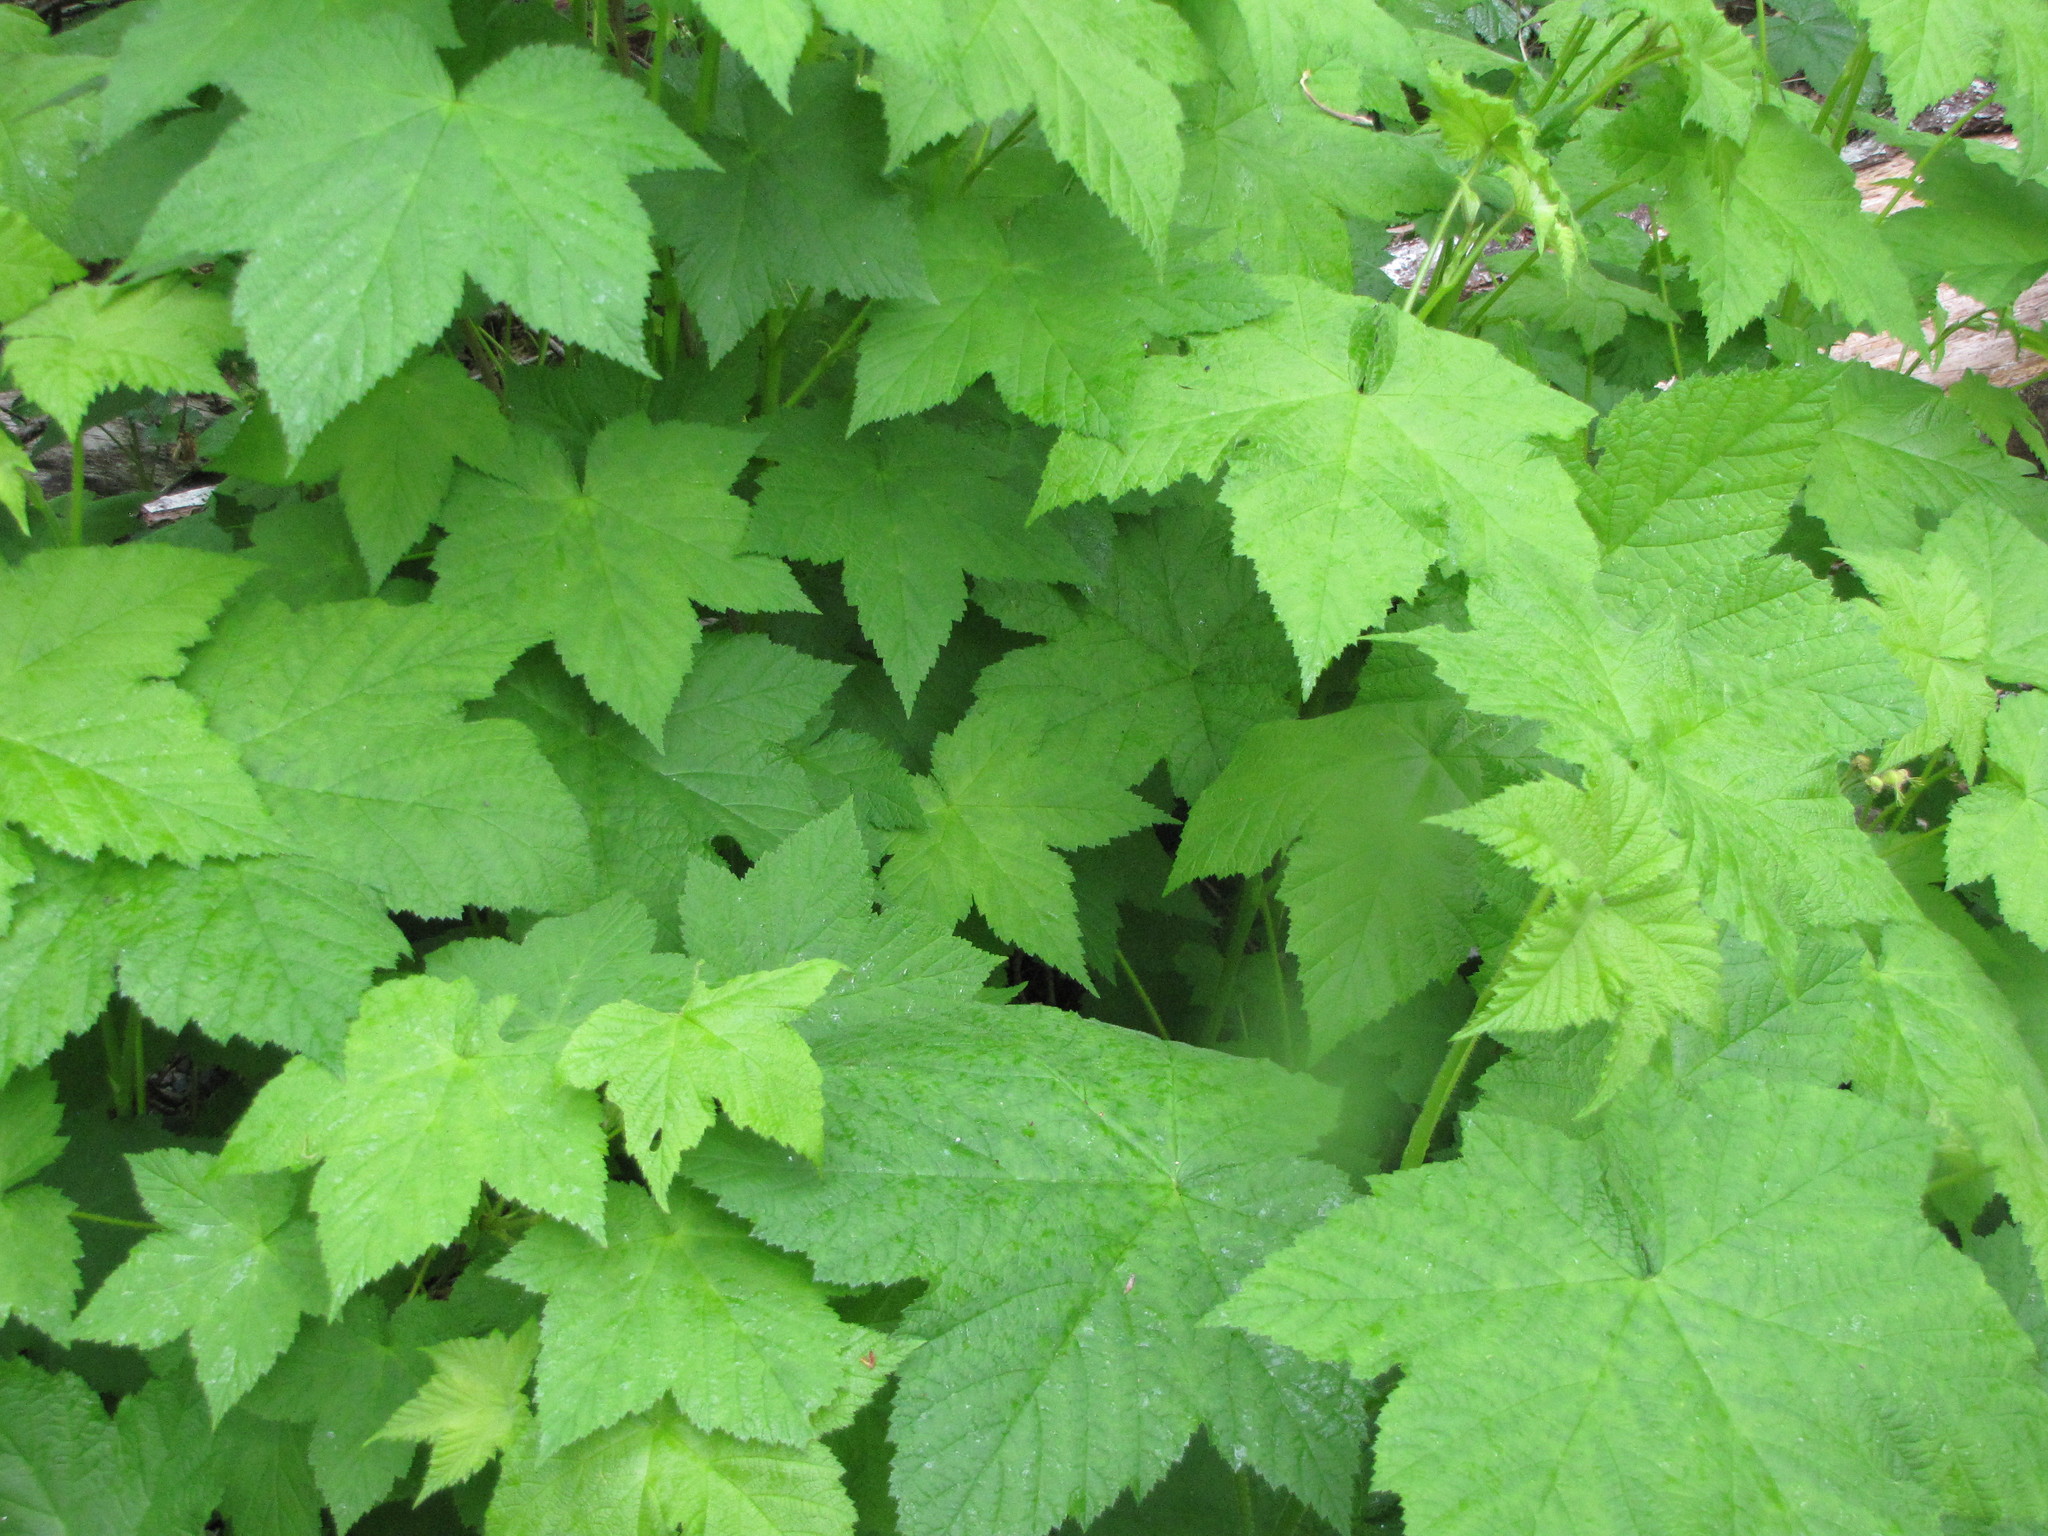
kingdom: Plantae
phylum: Tracheophyta
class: Magnoliopsida
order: Rosales
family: Rosaceae
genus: Rubus
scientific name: Rubus parviflorus
